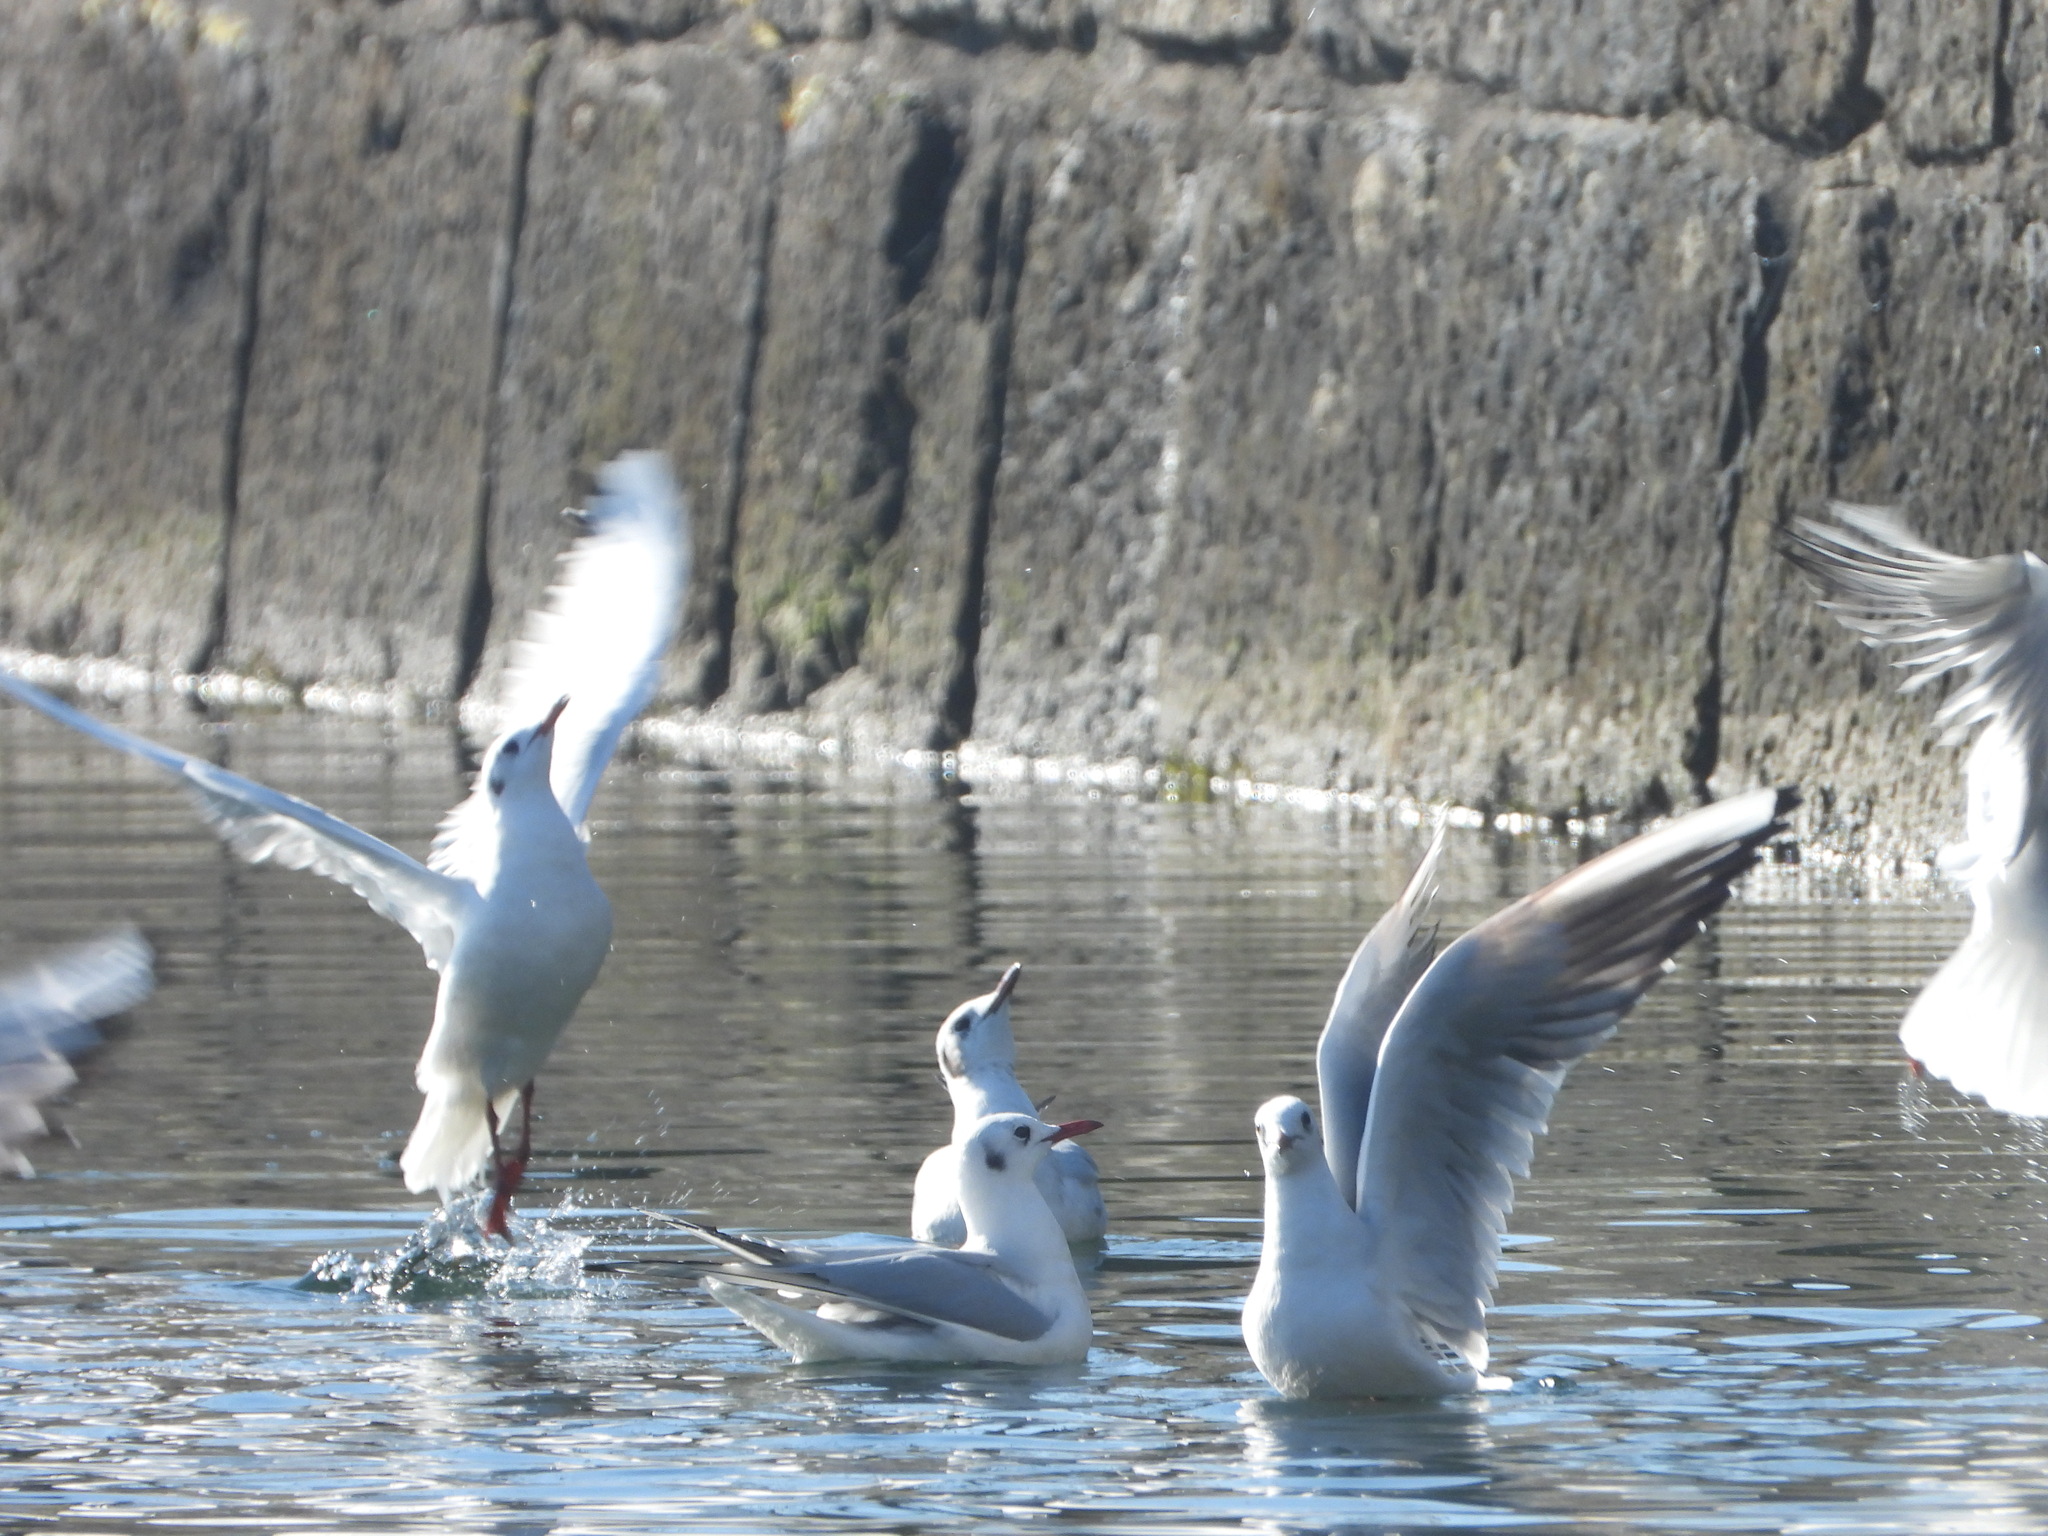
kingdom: Animalia
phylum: Chordata
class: Aves
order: Charadriiformes
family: Laridae
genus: Chroicocephalus
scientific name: Chroicocephalus ridibundus
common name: Black-headed gull
